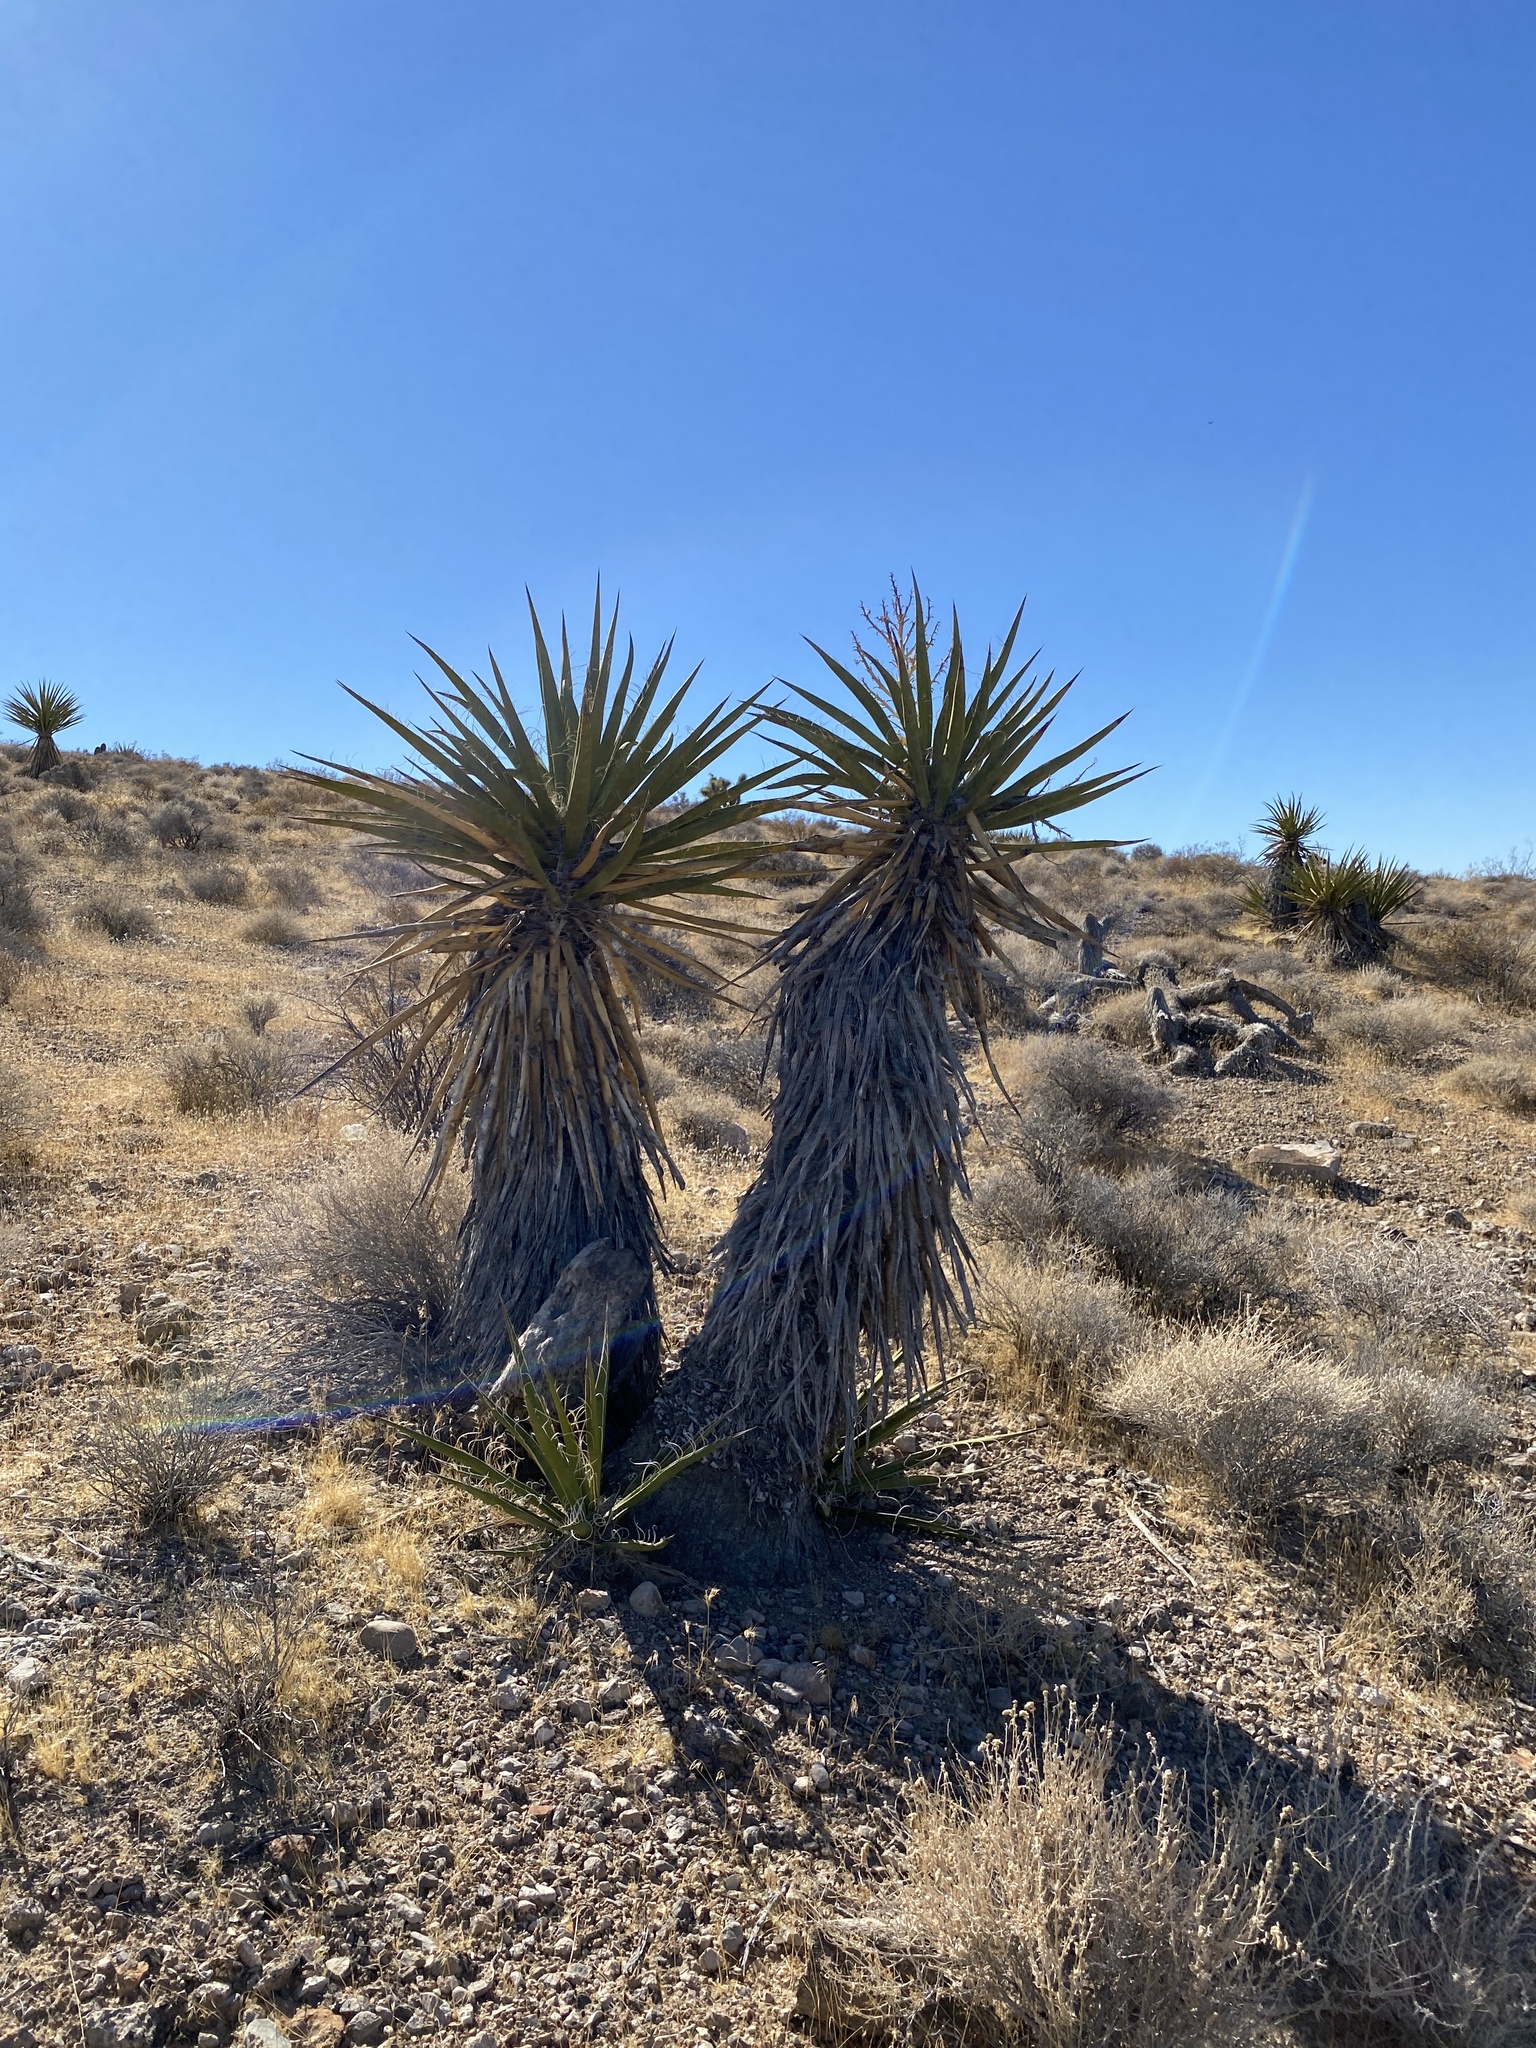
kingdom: Plantae
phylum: Tracheophyta
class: Liliopsida
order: Asparagales
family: Asparagaceae
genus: Yucca
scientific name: Yucca schidigera
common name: Mojave yucca
